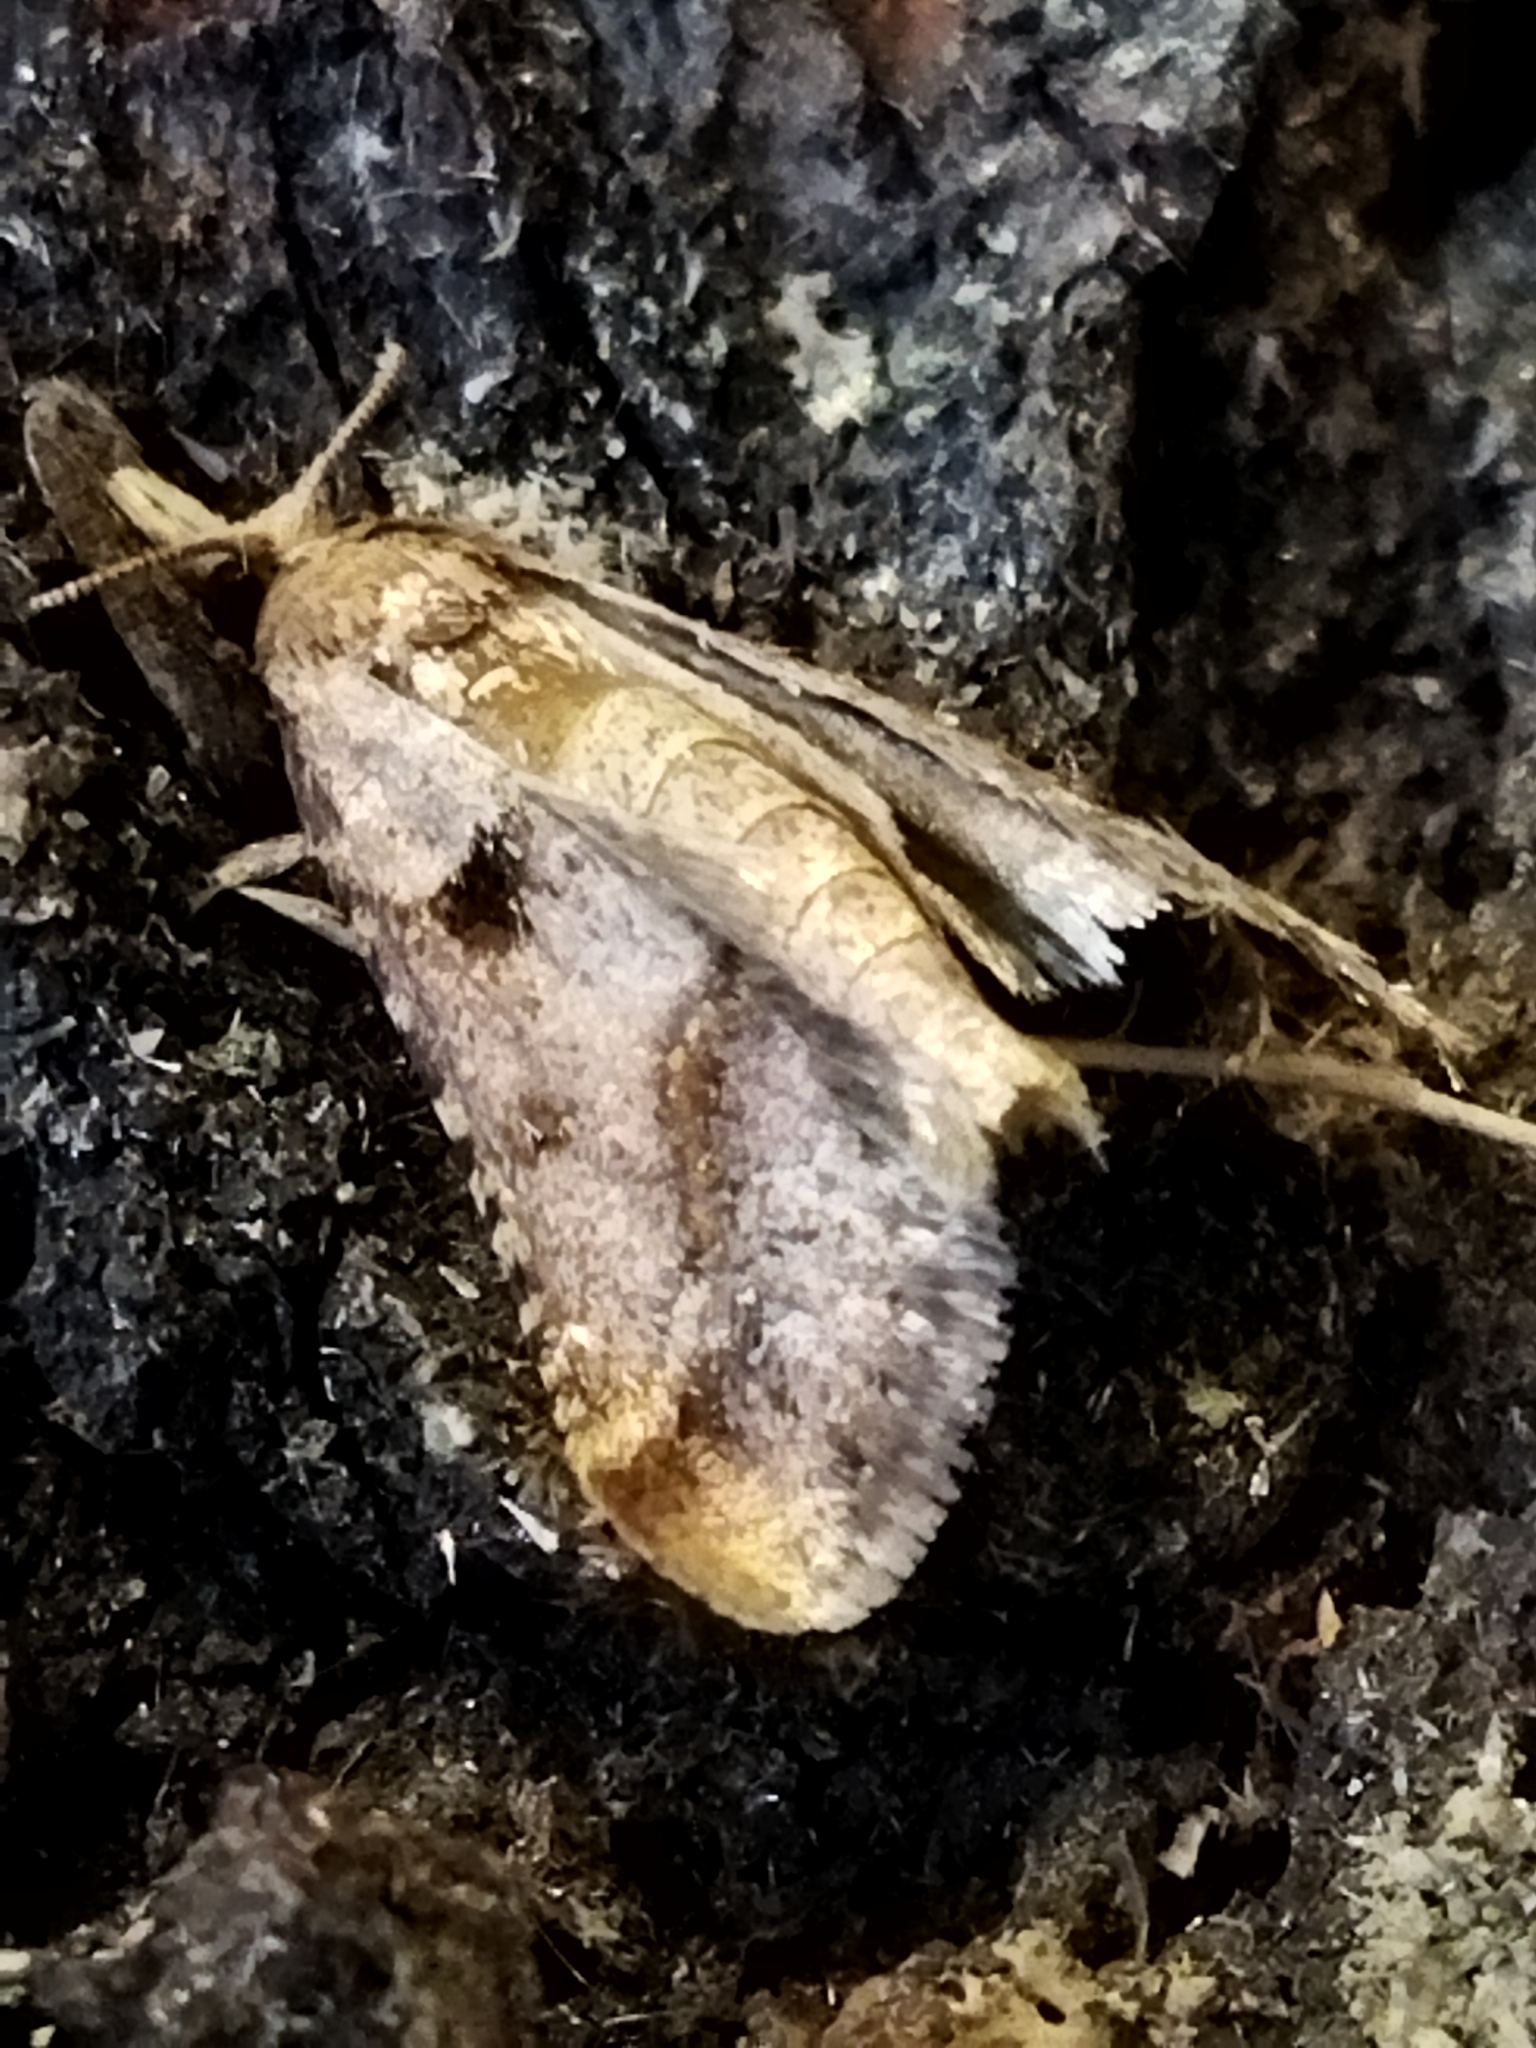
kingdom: Animalia
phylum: Arthropoda
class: Insecta
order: Lepidoptera
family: Pyralidae
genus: Stemmatophora
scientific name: Stemmatophora brunnealis
